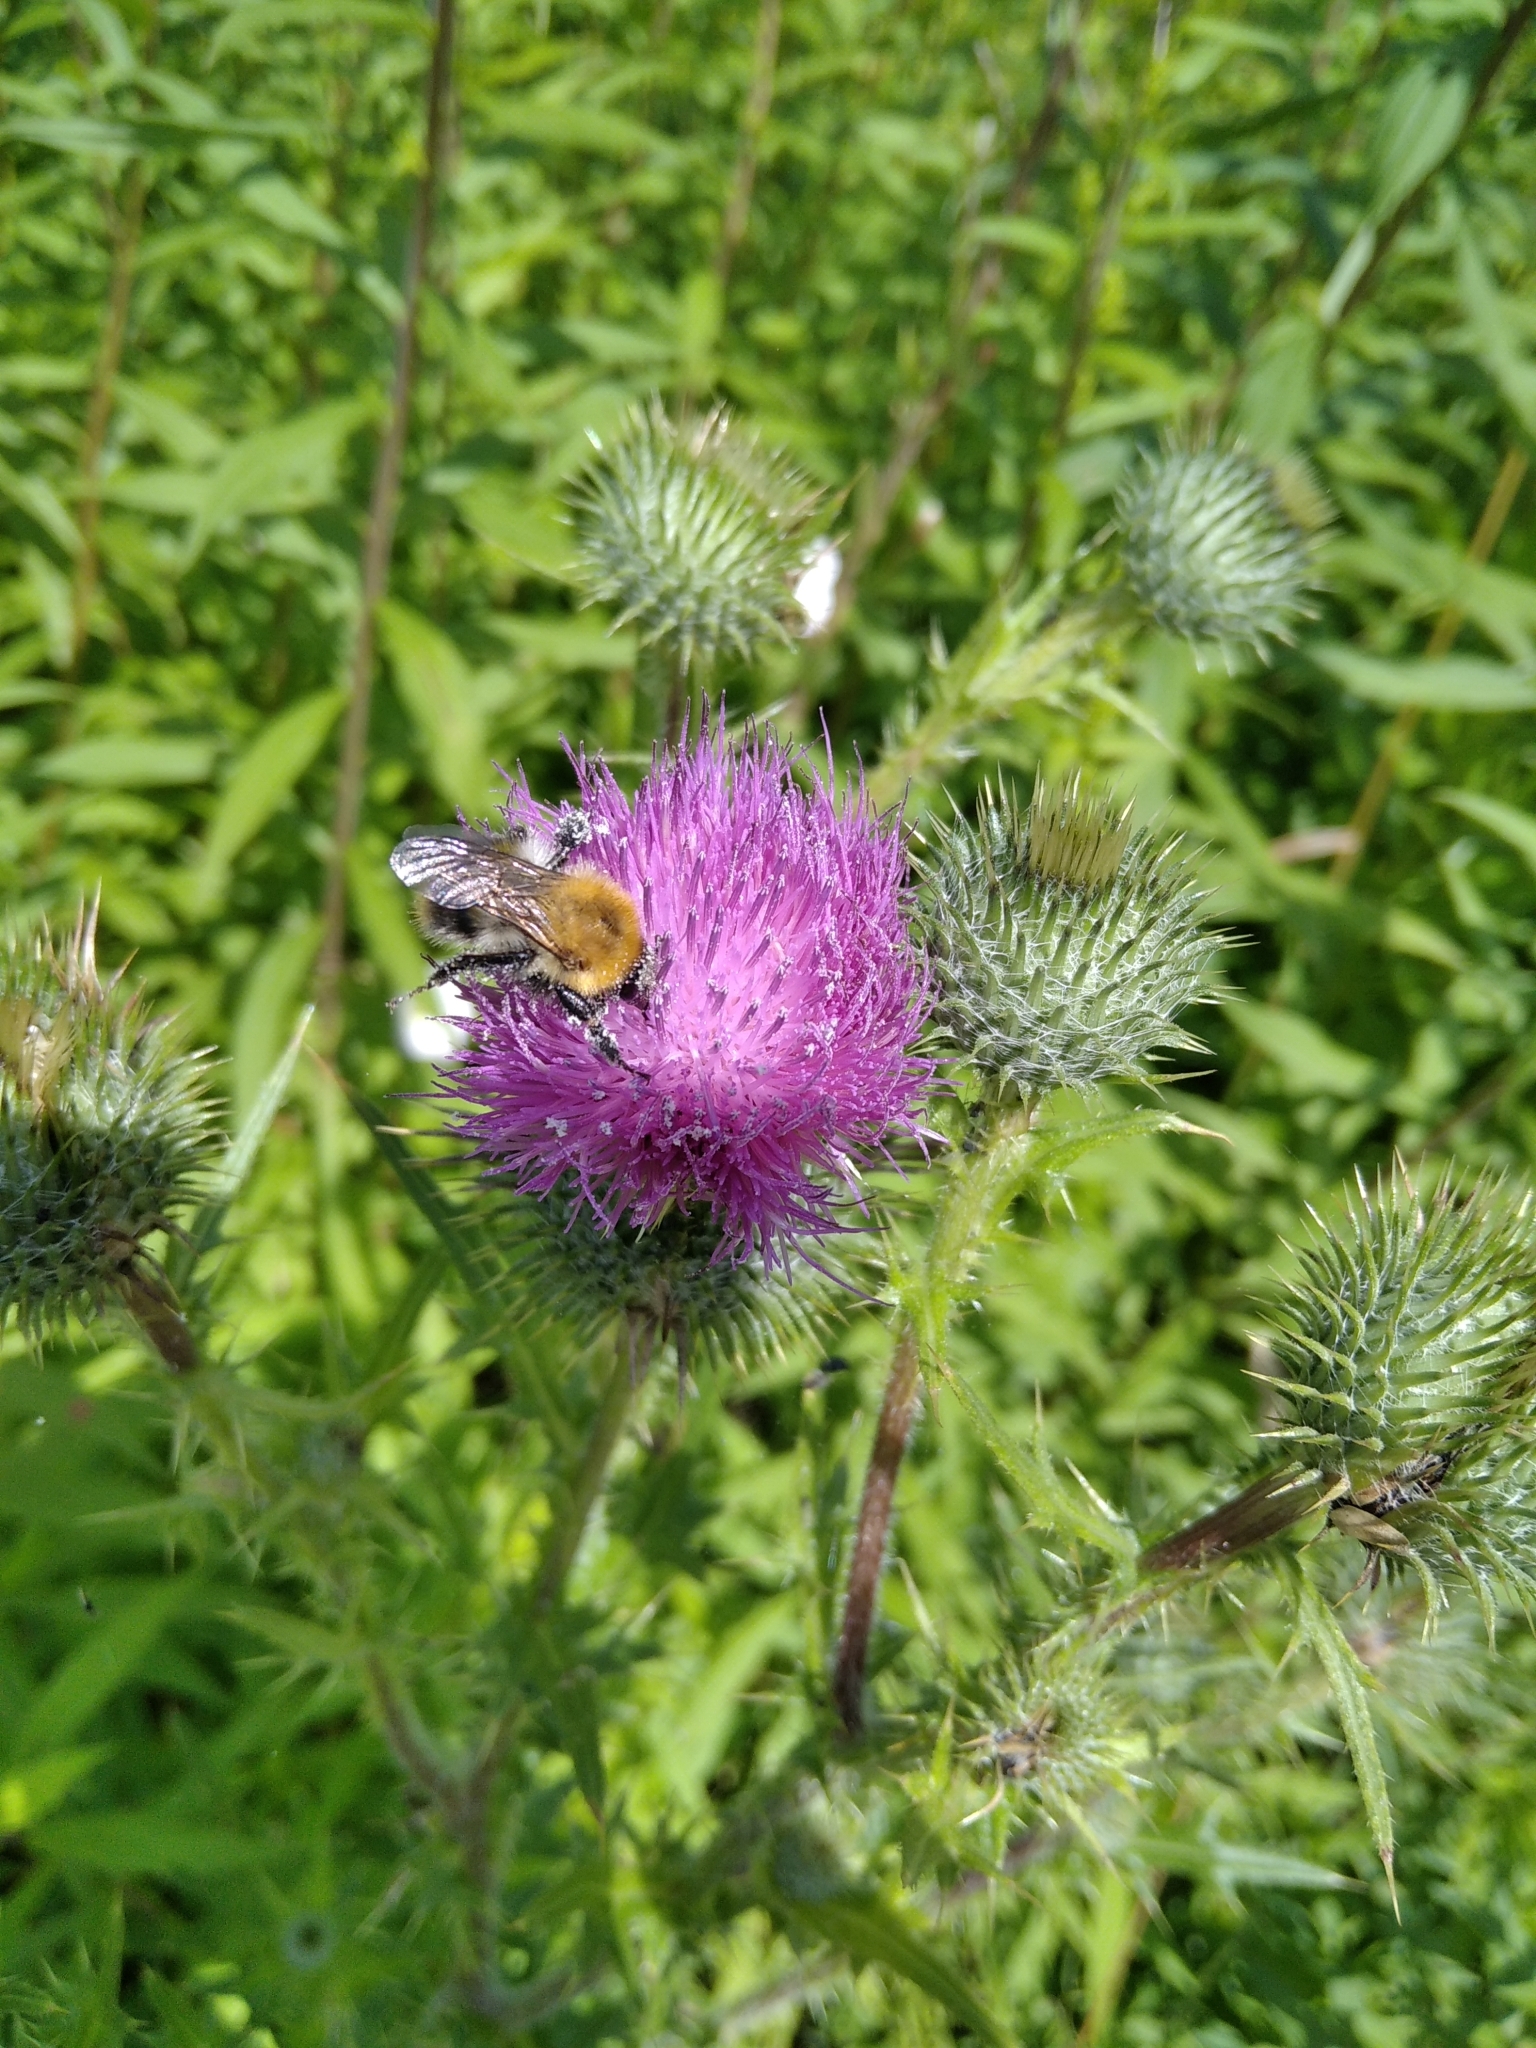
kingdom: Animalia
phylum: Arthropoda
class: Insecta
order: Hymenoptera
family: Apidae
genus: Bombus
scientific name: Bombus pascuorum
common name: Common carder bee
